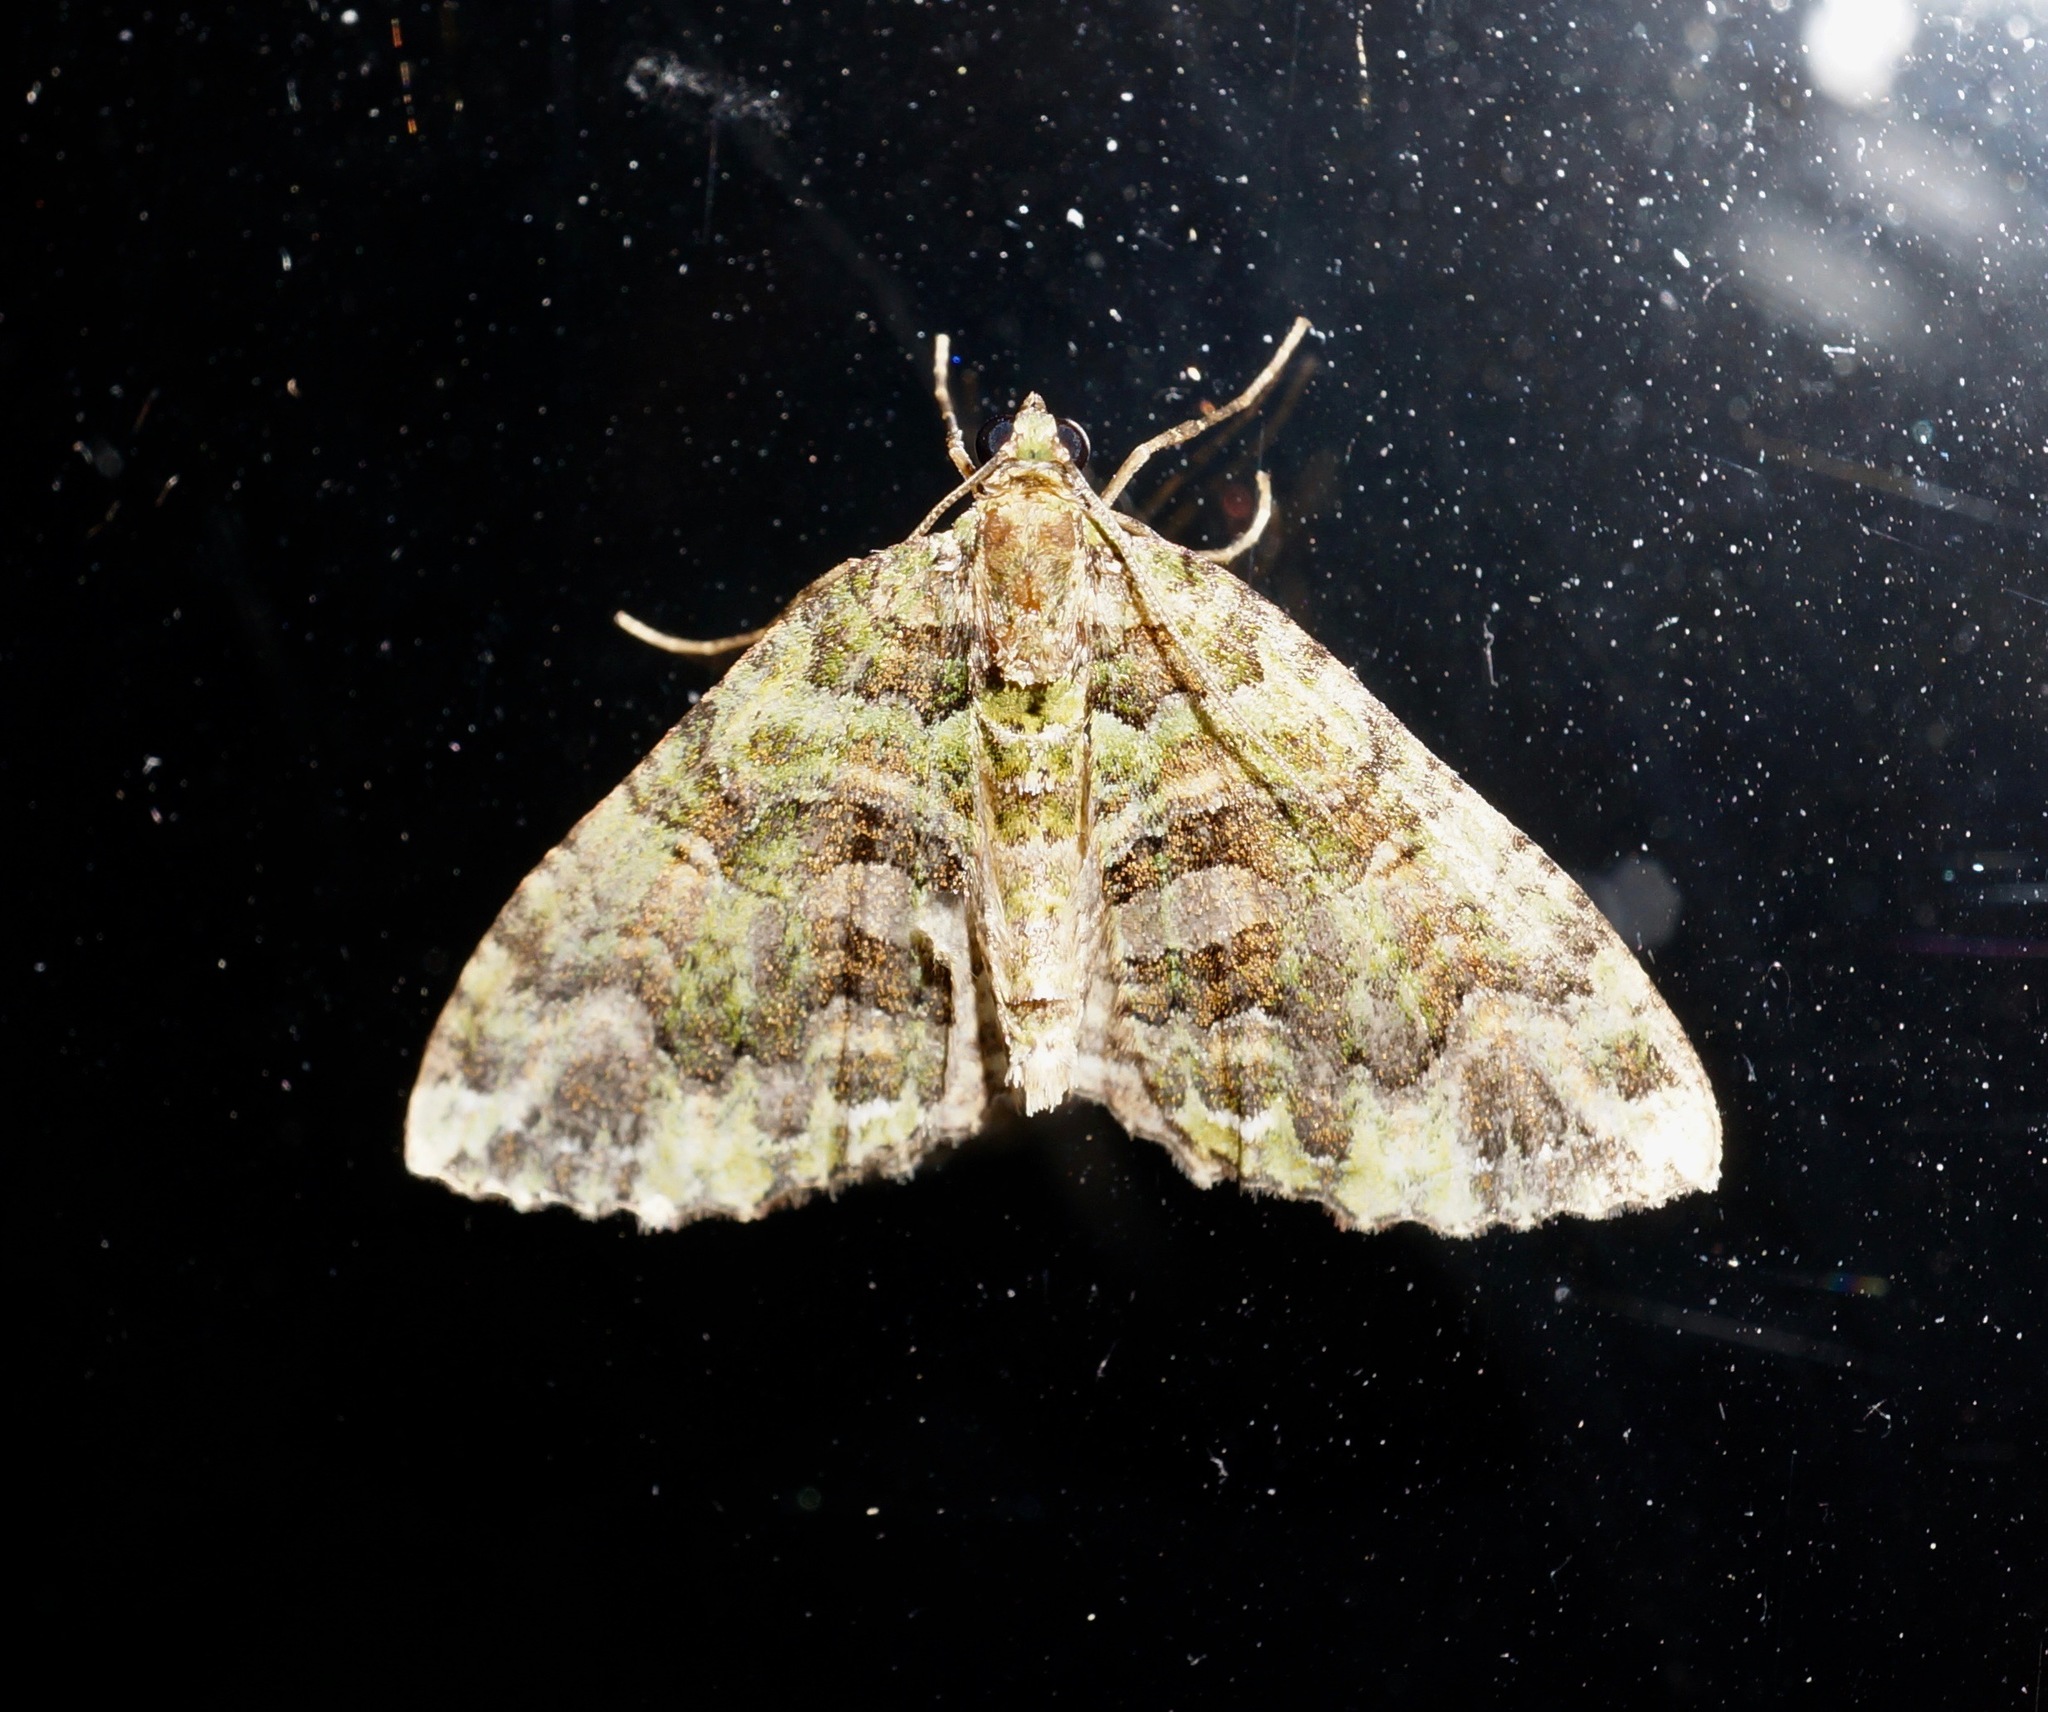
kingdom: Animalia
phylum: Arthropoda
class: Insecta
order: Lepidoptera
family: Geometridae
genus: Austrocidaria
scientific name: Austrocidaria similata
